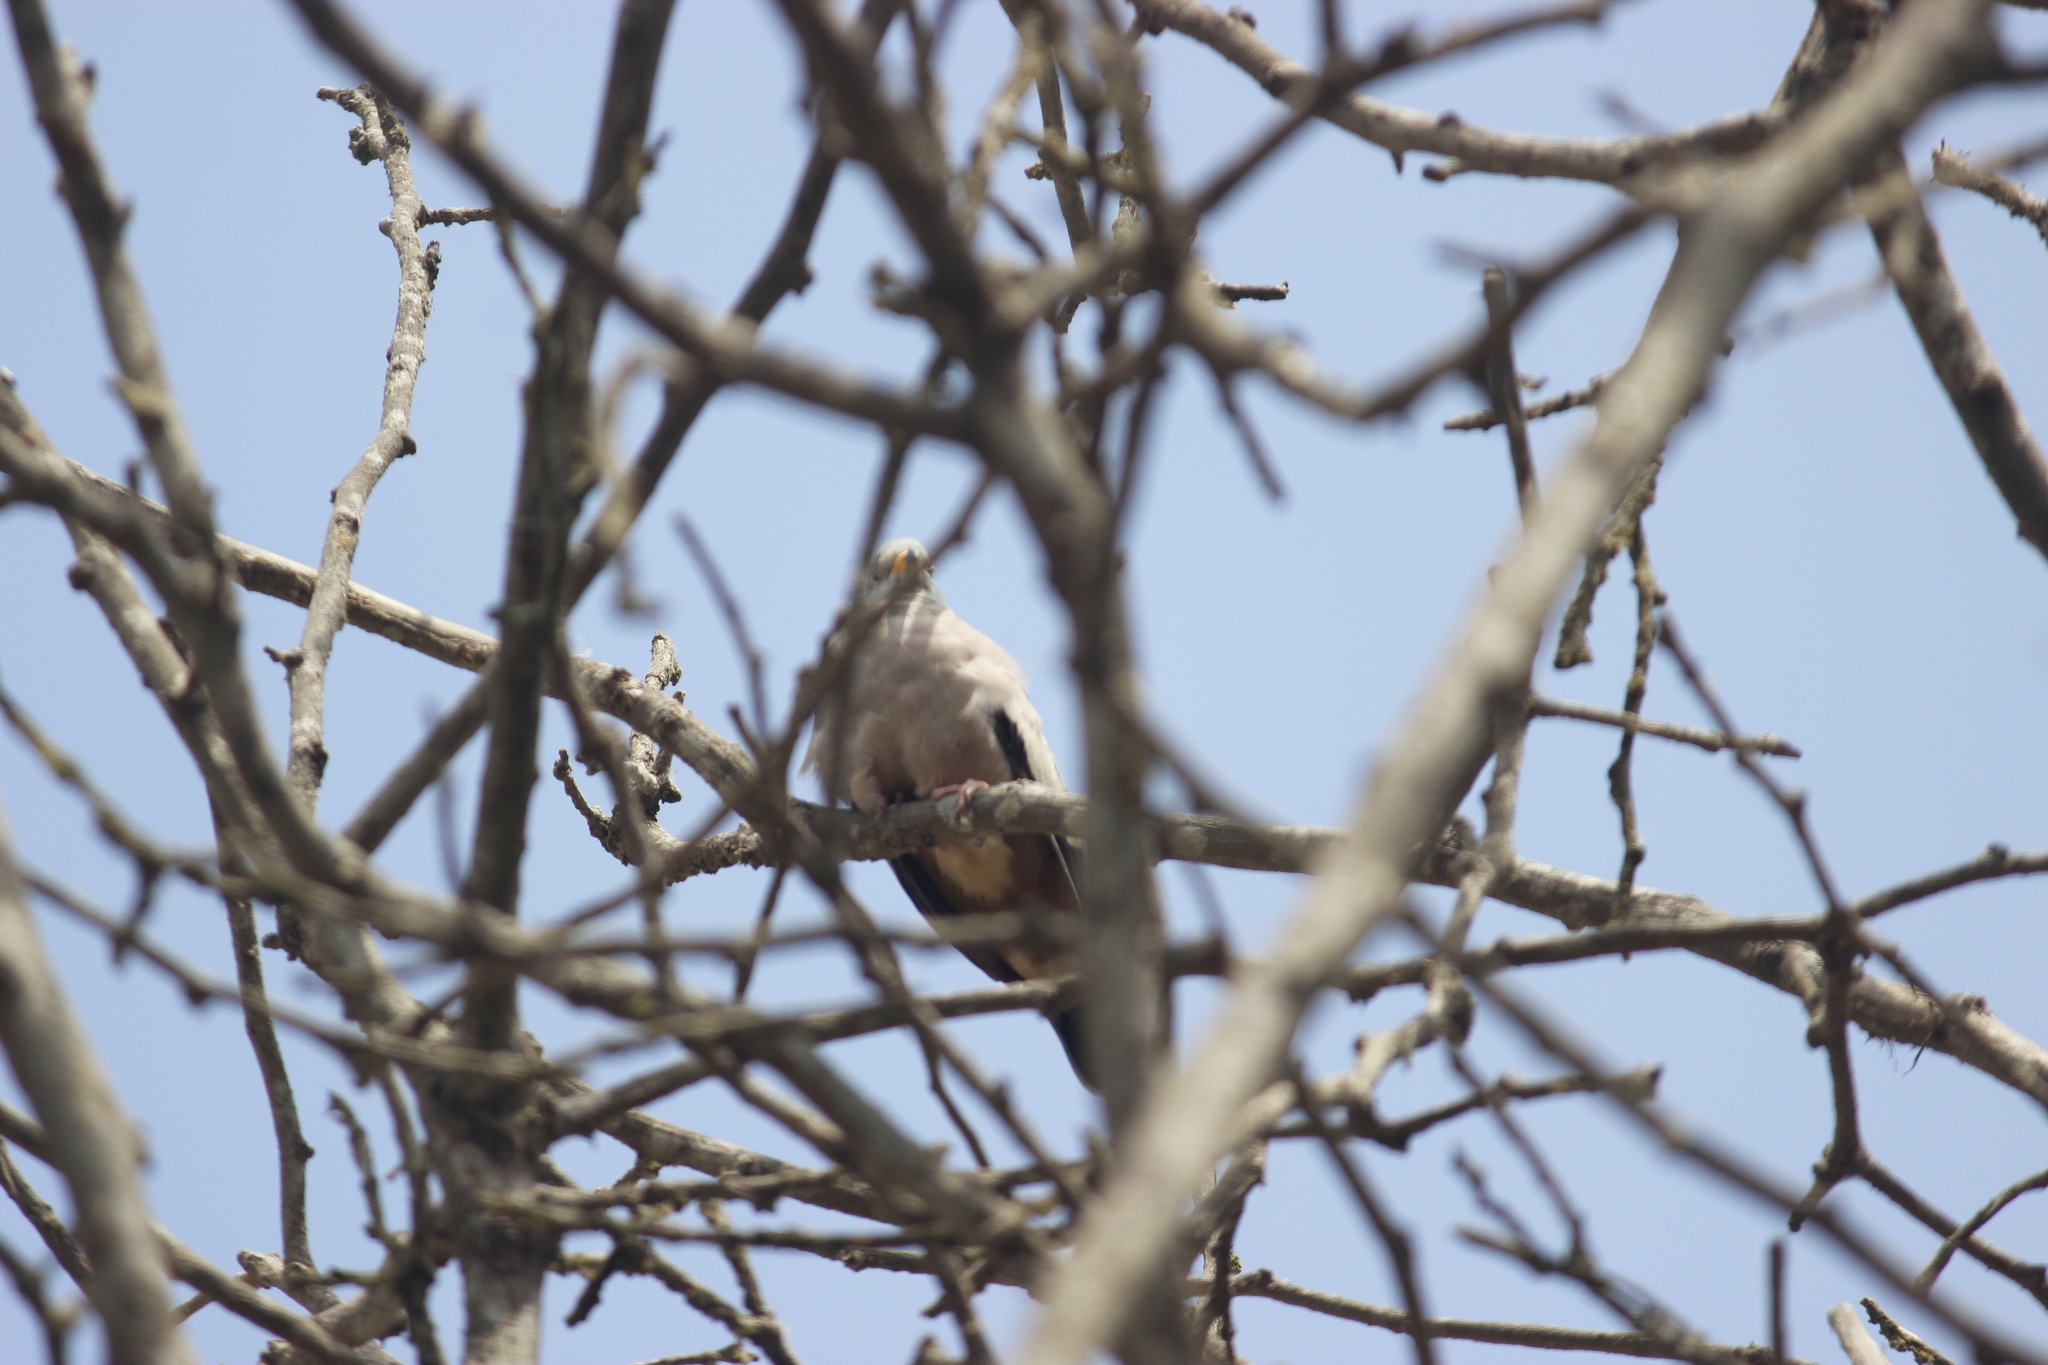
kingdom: Animalia
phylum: Chordata
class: Aves
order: Columbiformes
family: Columbidae
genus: Columbina
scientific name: Columbina cruziana
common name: Croaking ground dove
